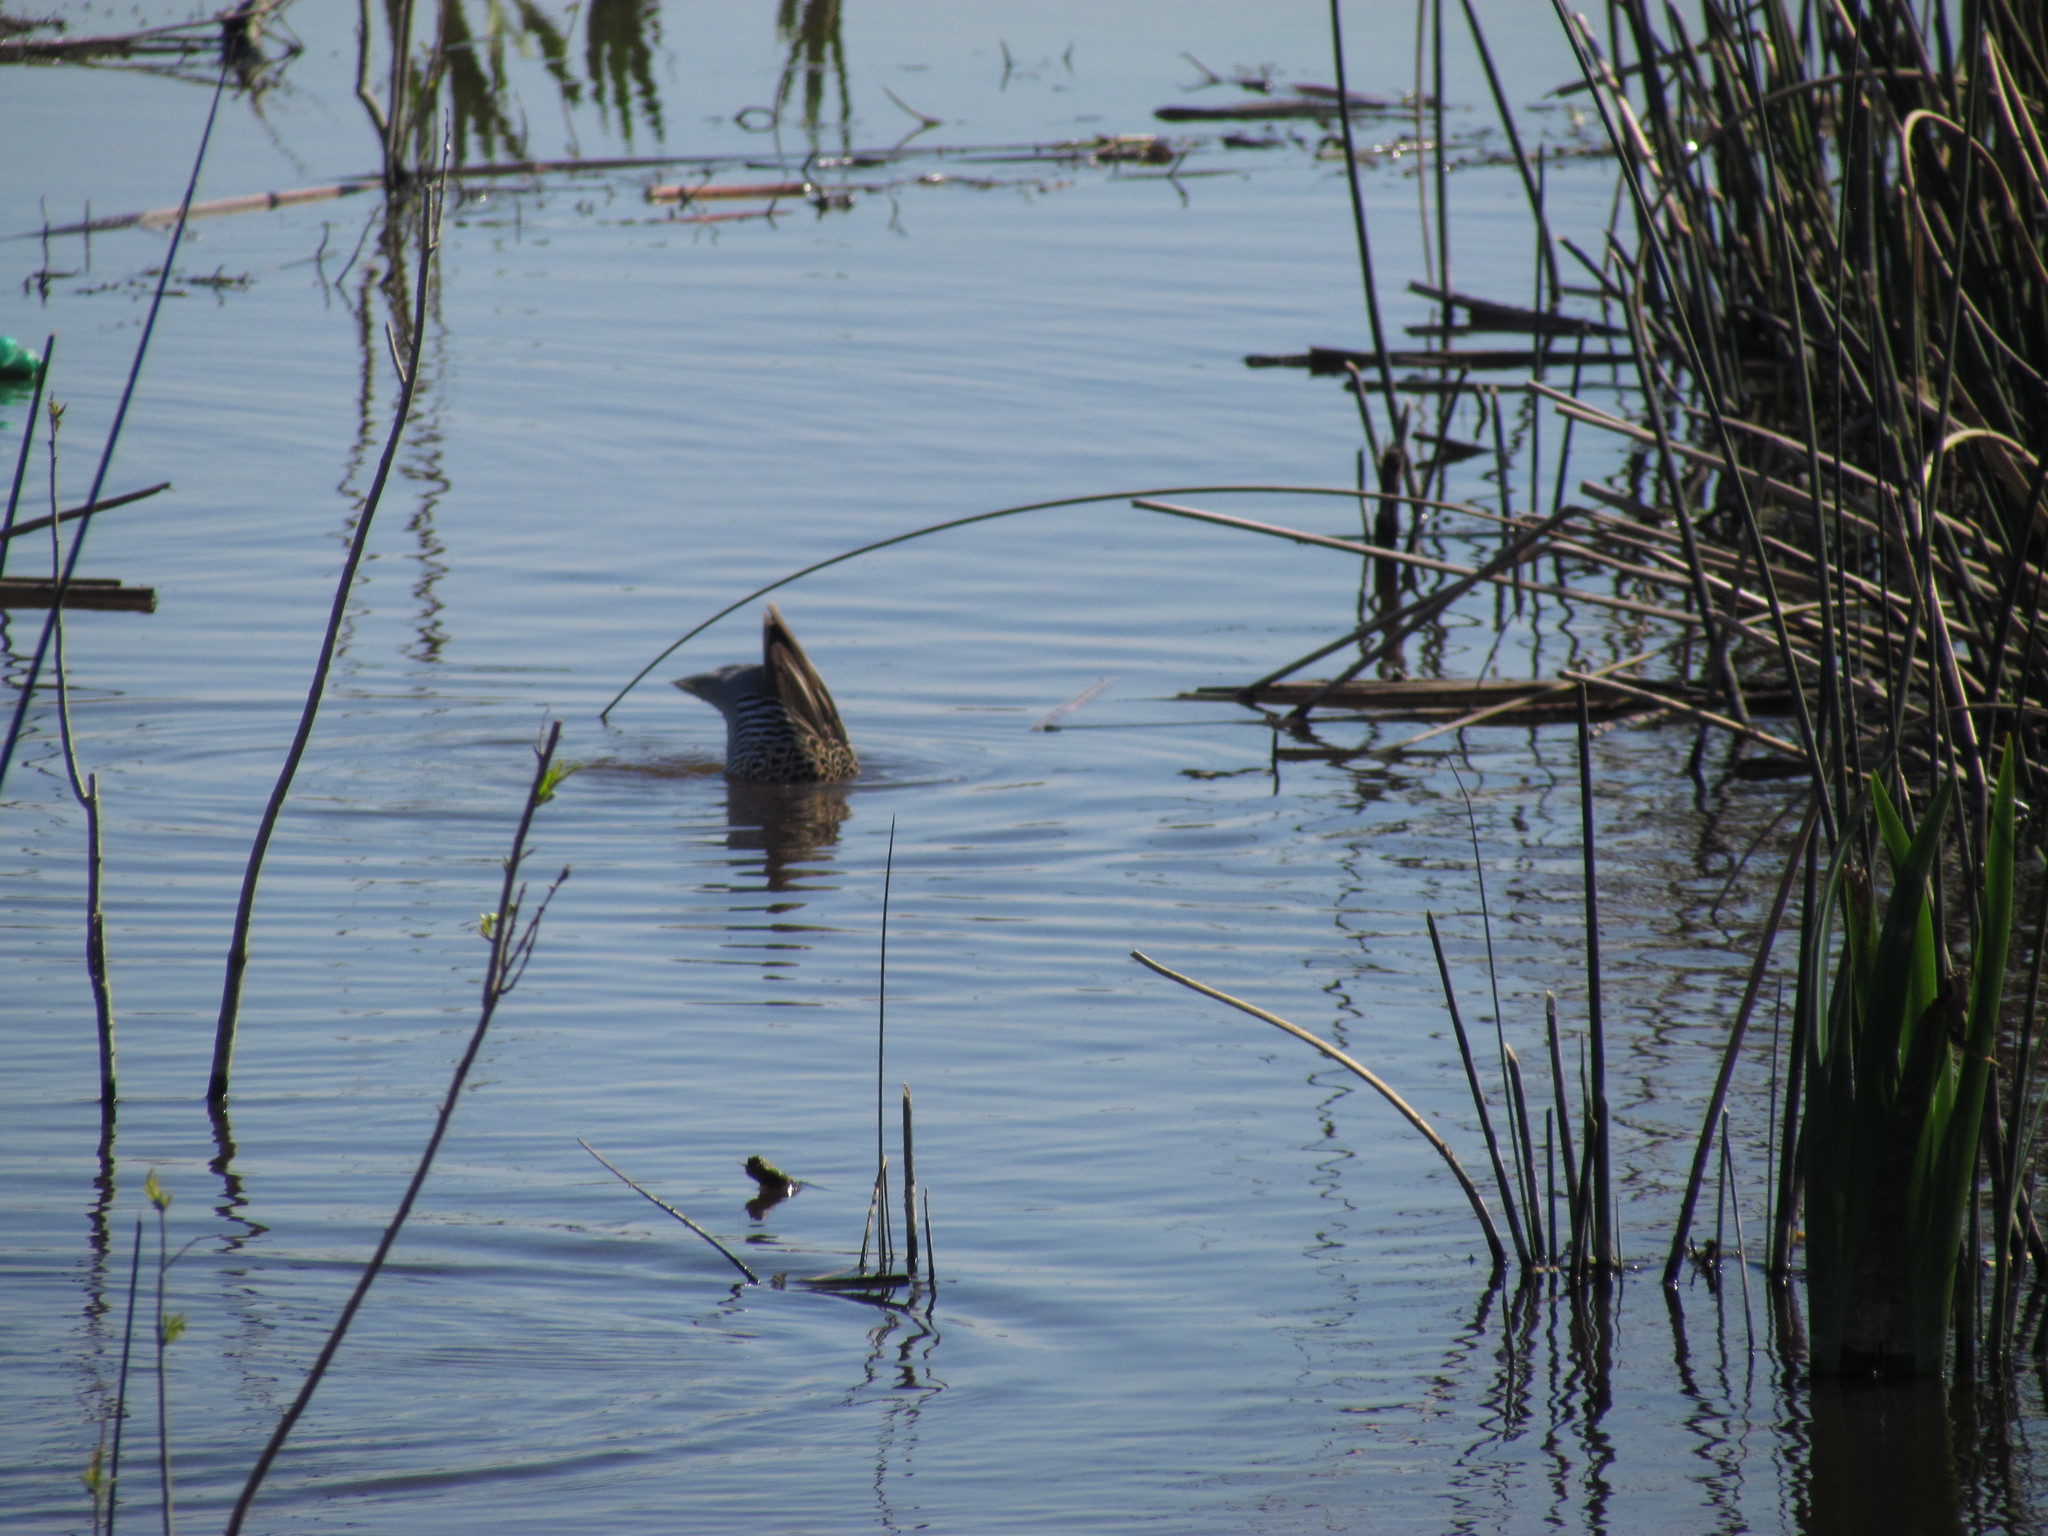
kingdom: Animalia
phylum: Chordata
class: Aves
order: Anseriformes
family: Anatidae
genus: Spatula
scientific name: Spatula versicolor
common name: Silver teal
